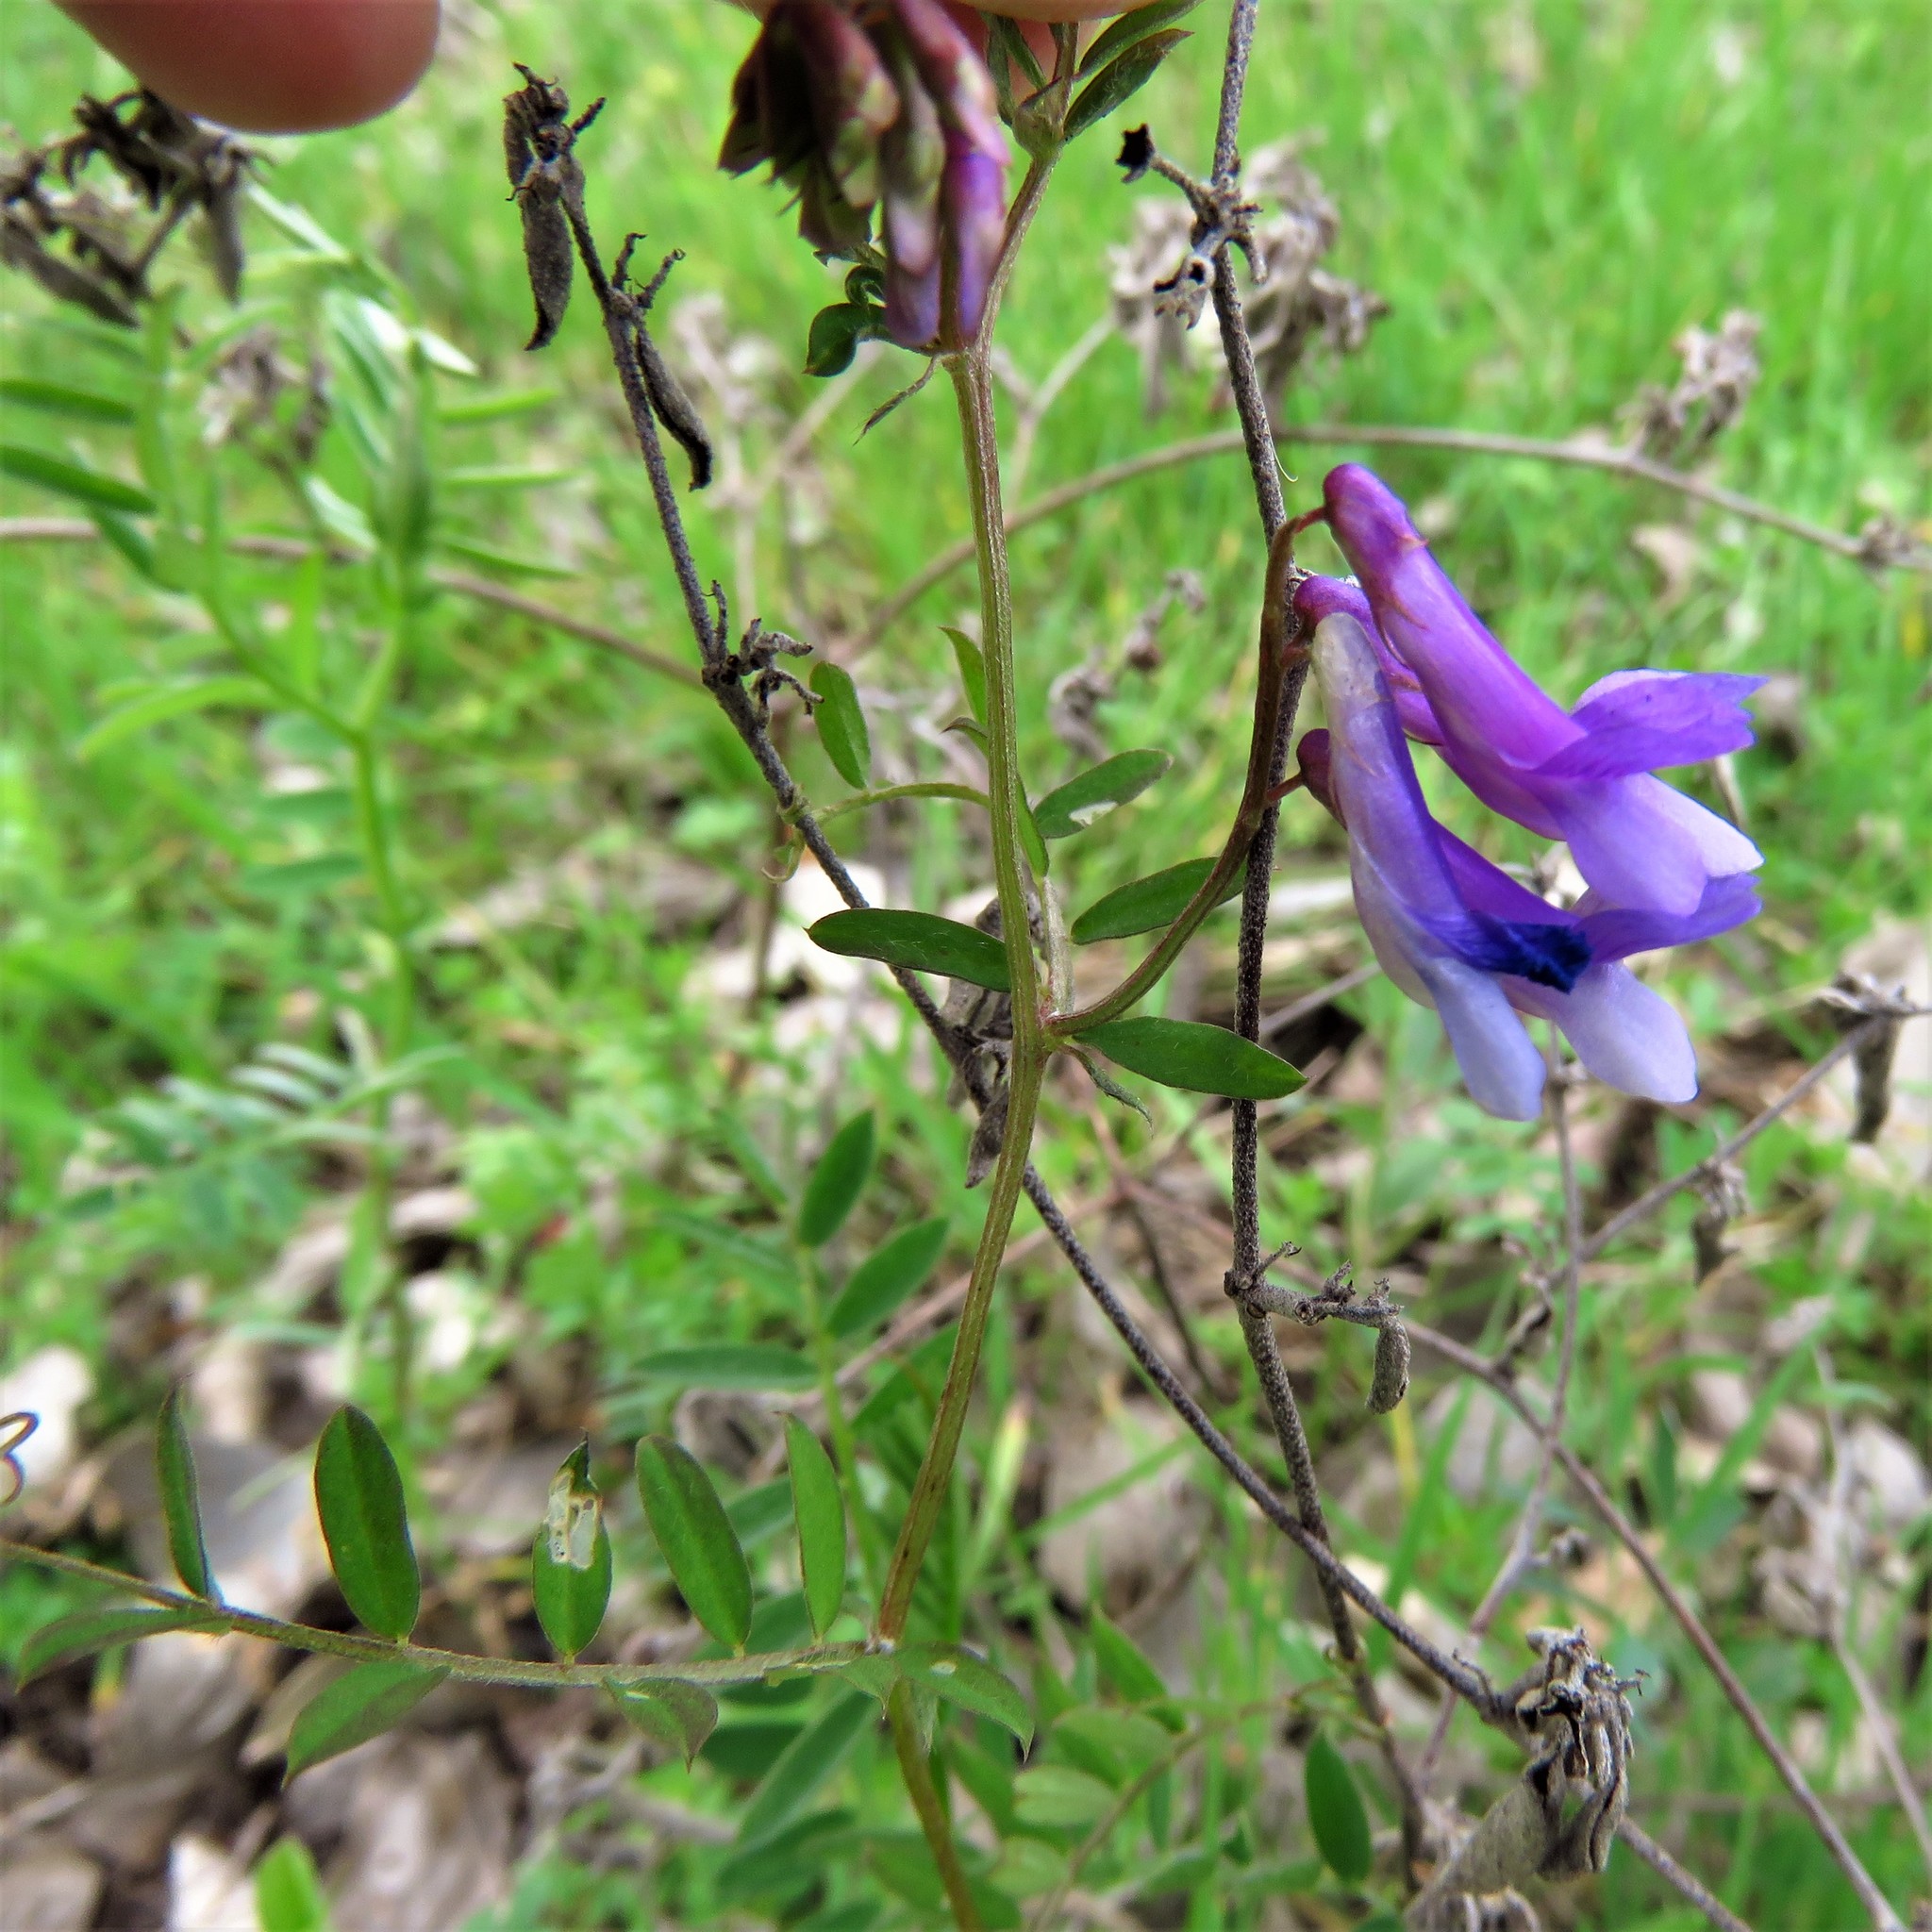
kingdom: Plantae
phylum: Tracheophyta
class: Magnoliopsida
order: Fabales
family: Fabaceae
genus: Vicia
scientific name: Vicia villosa
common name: Fodder vetch
